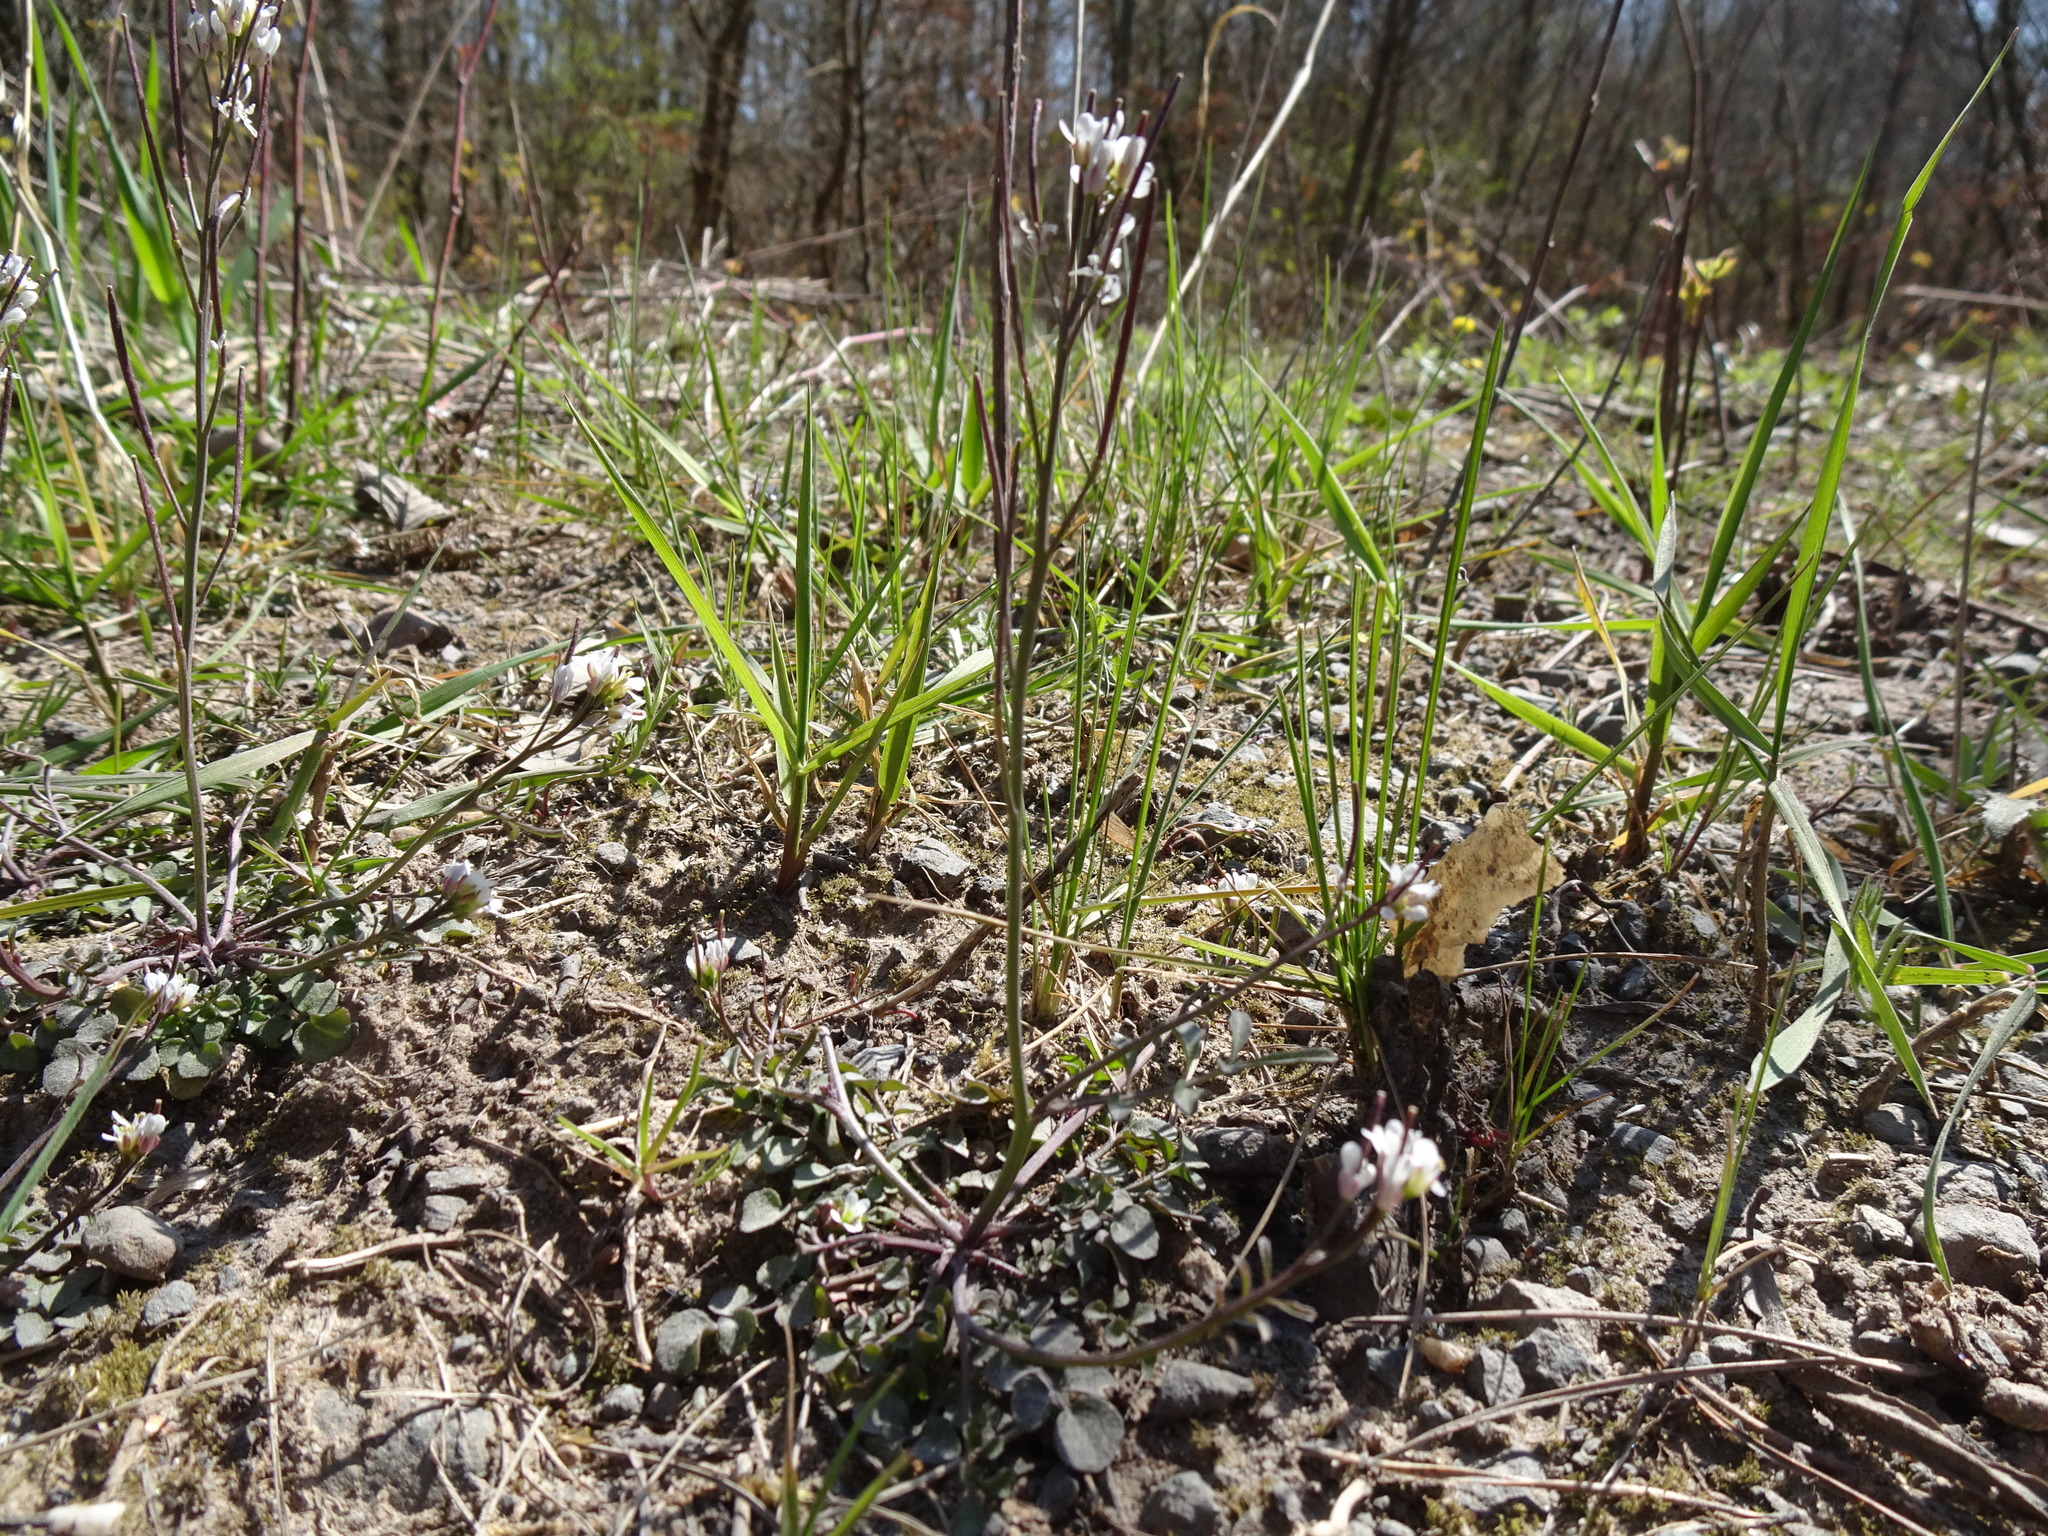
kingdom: Plantae
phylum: Tracheophyta
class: Magnoliopsida
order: Brassicales
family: Brassicaceae
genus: Cardamine
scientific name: Cardamine hirsuta
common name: Hairy bittercress
